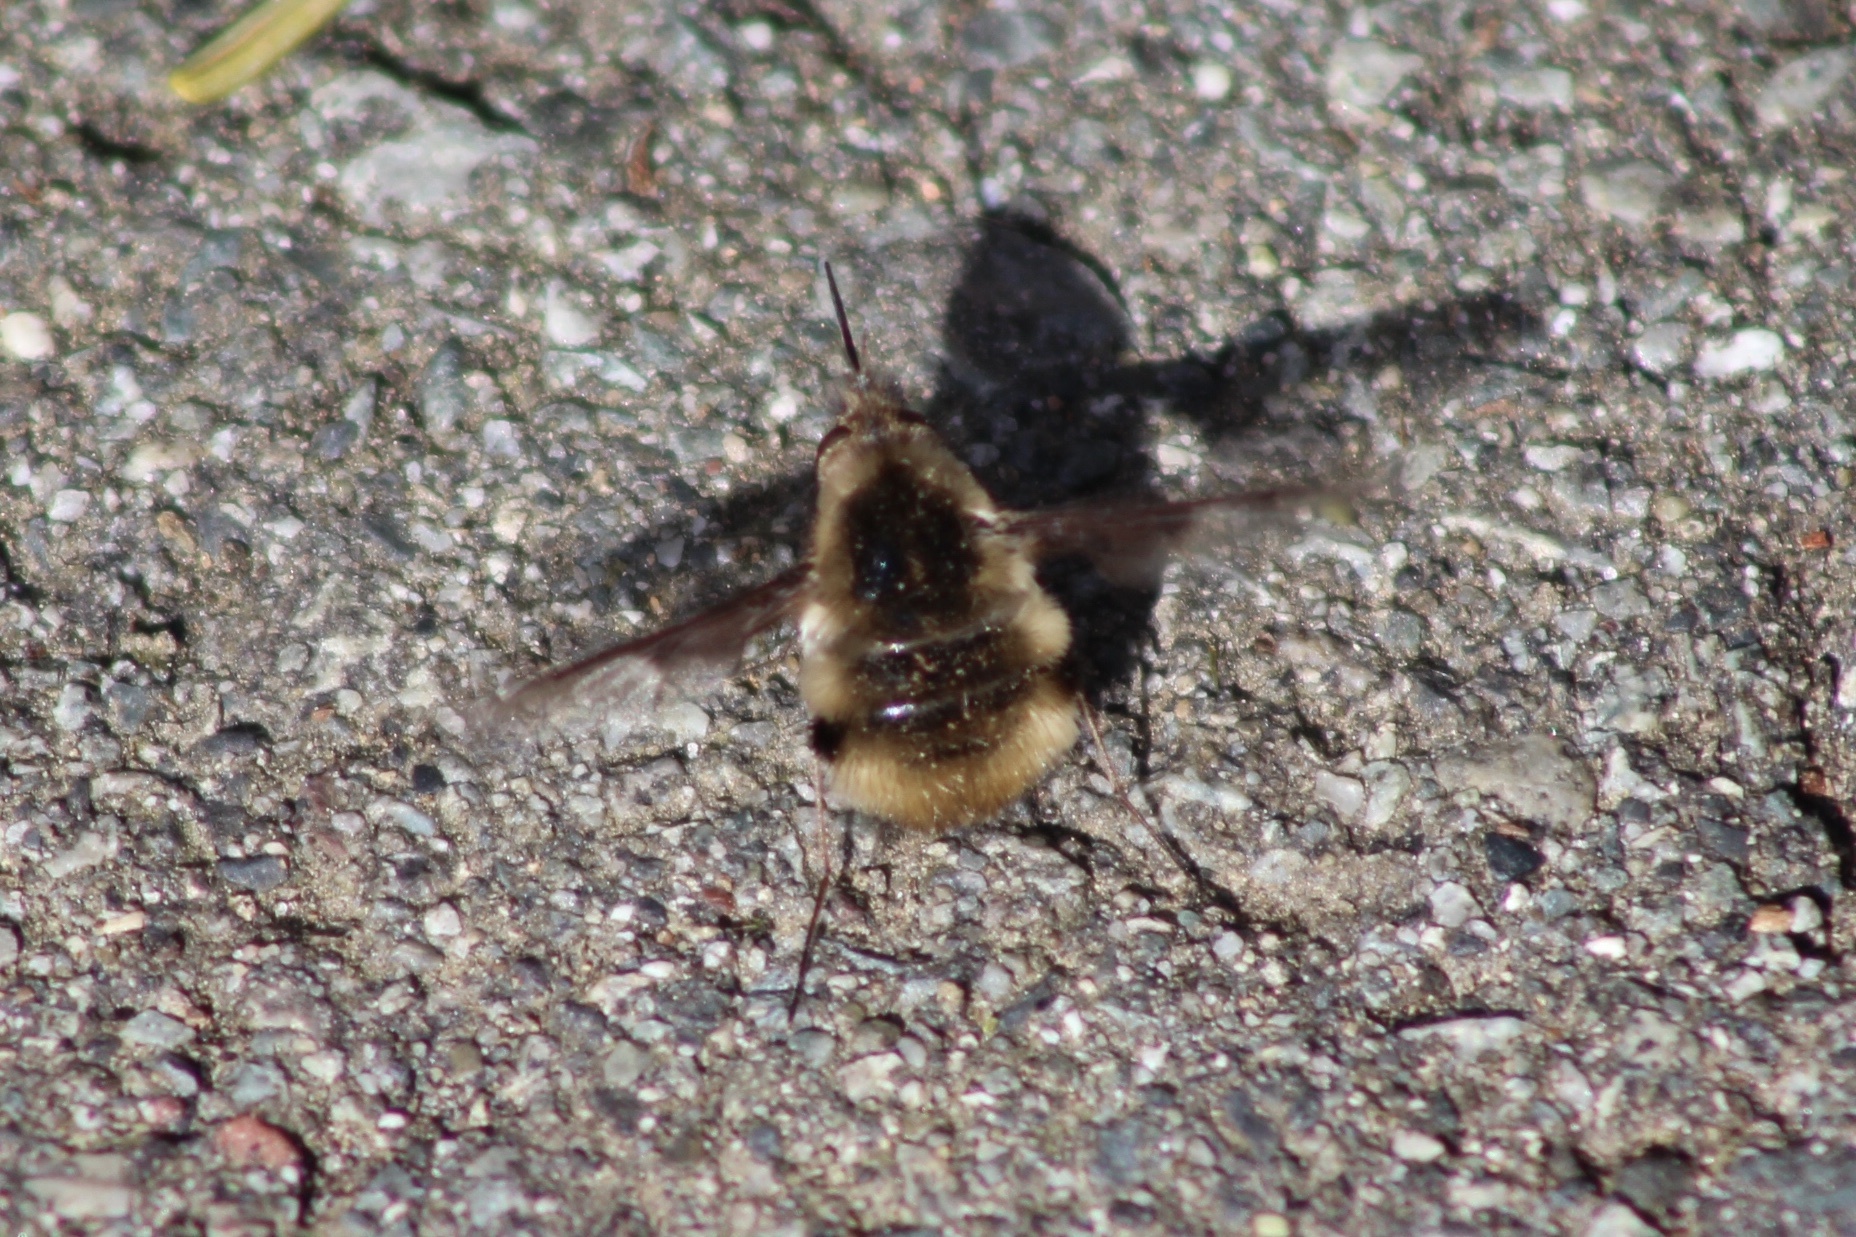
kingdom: Animalia
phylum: Arthropoda
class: Insecta
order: Diptera
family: Bombyliidae
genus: Bombylius
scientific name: Bombylius major
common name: Bee fly
